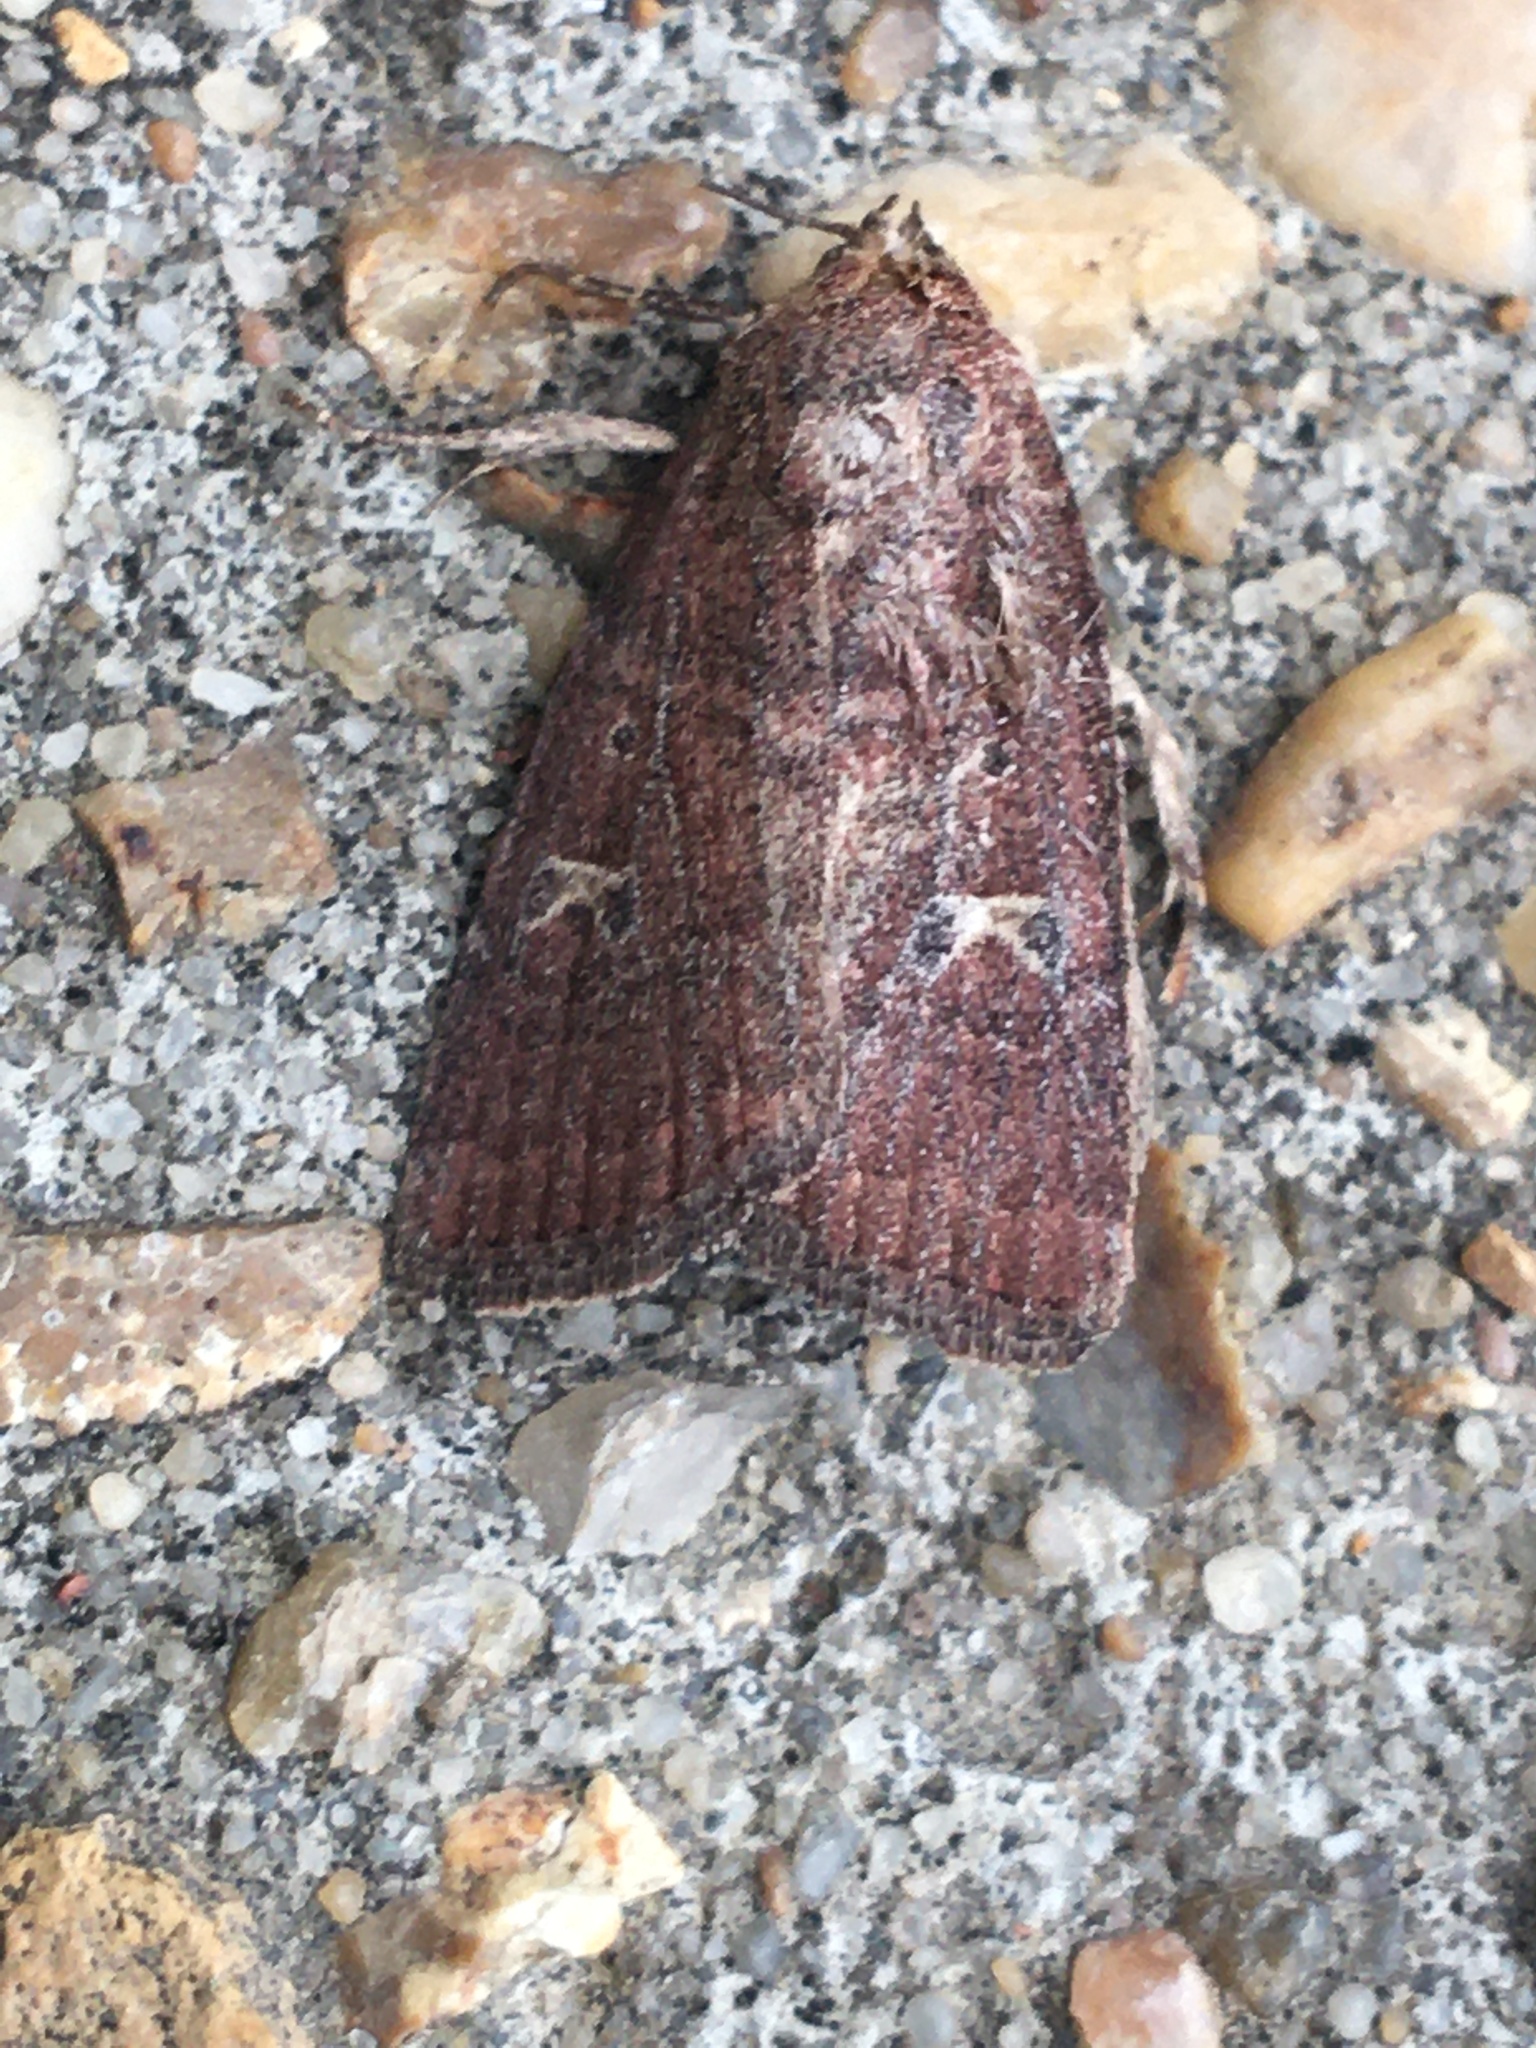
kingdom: Animalia
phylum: Arthropoda
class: Insecta
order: Lepidoptera
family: Noctuidae
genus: Elaphria
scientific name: Elaphria grata
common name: Grateful midget moth
